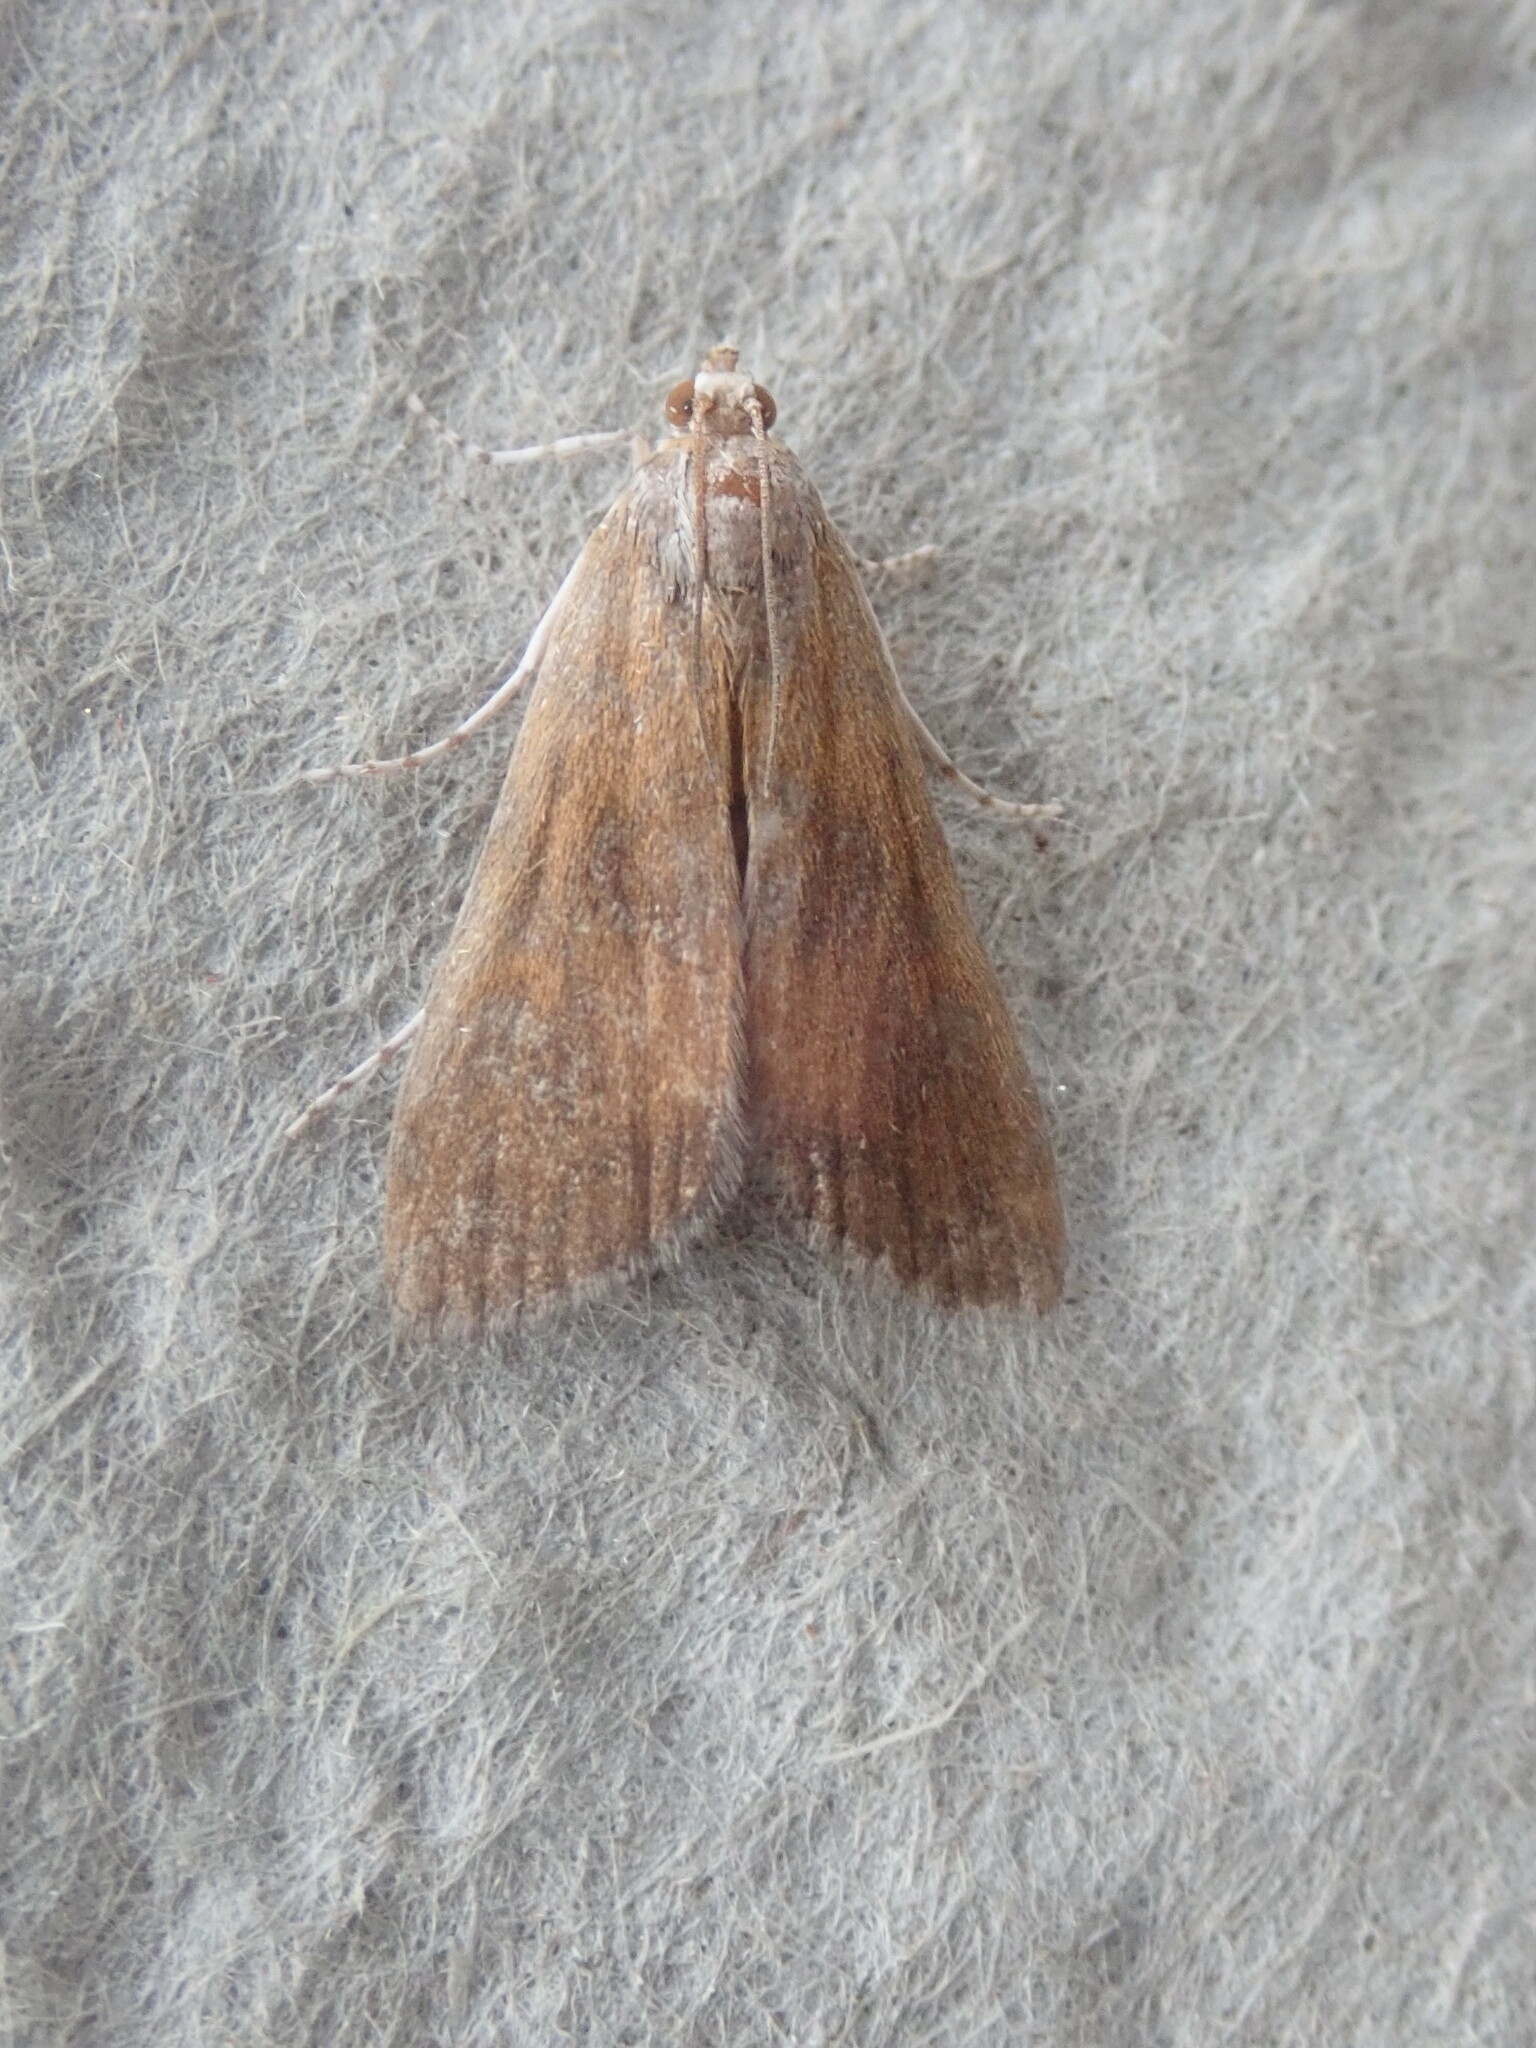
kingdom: Animalia
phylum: Arthropoda
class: Insecta
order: Lepidoptera
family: Crambidae
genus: Elophila
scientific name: Elophila gyralis
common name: Waterlily borer moth
